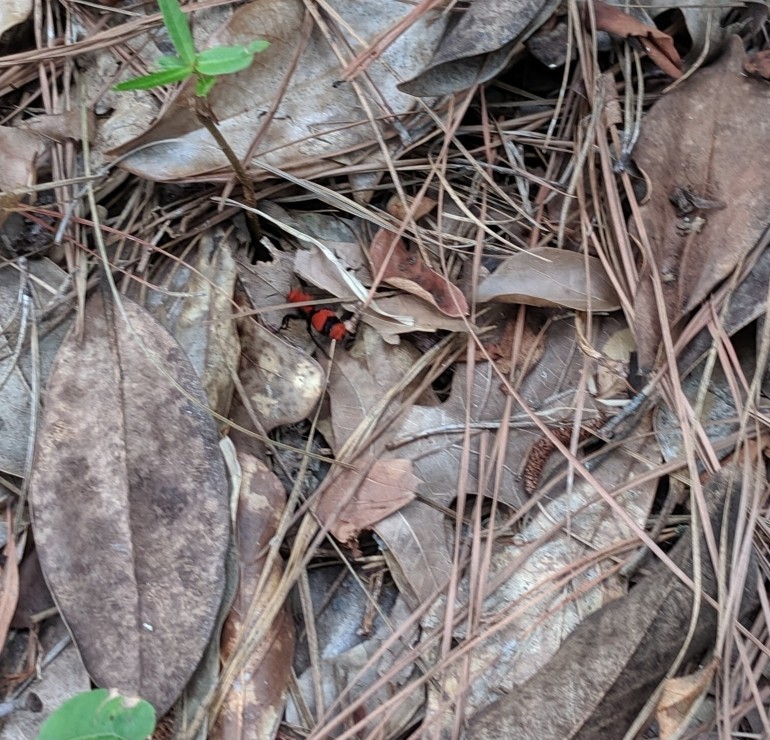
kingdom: Animalia
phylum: Arthropoda
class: Insecta
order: Hymenoptera
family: Mutillidae
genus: Dasymutilla
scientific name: Dasymutilla occidentalis
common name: Common eastern velvet ant
